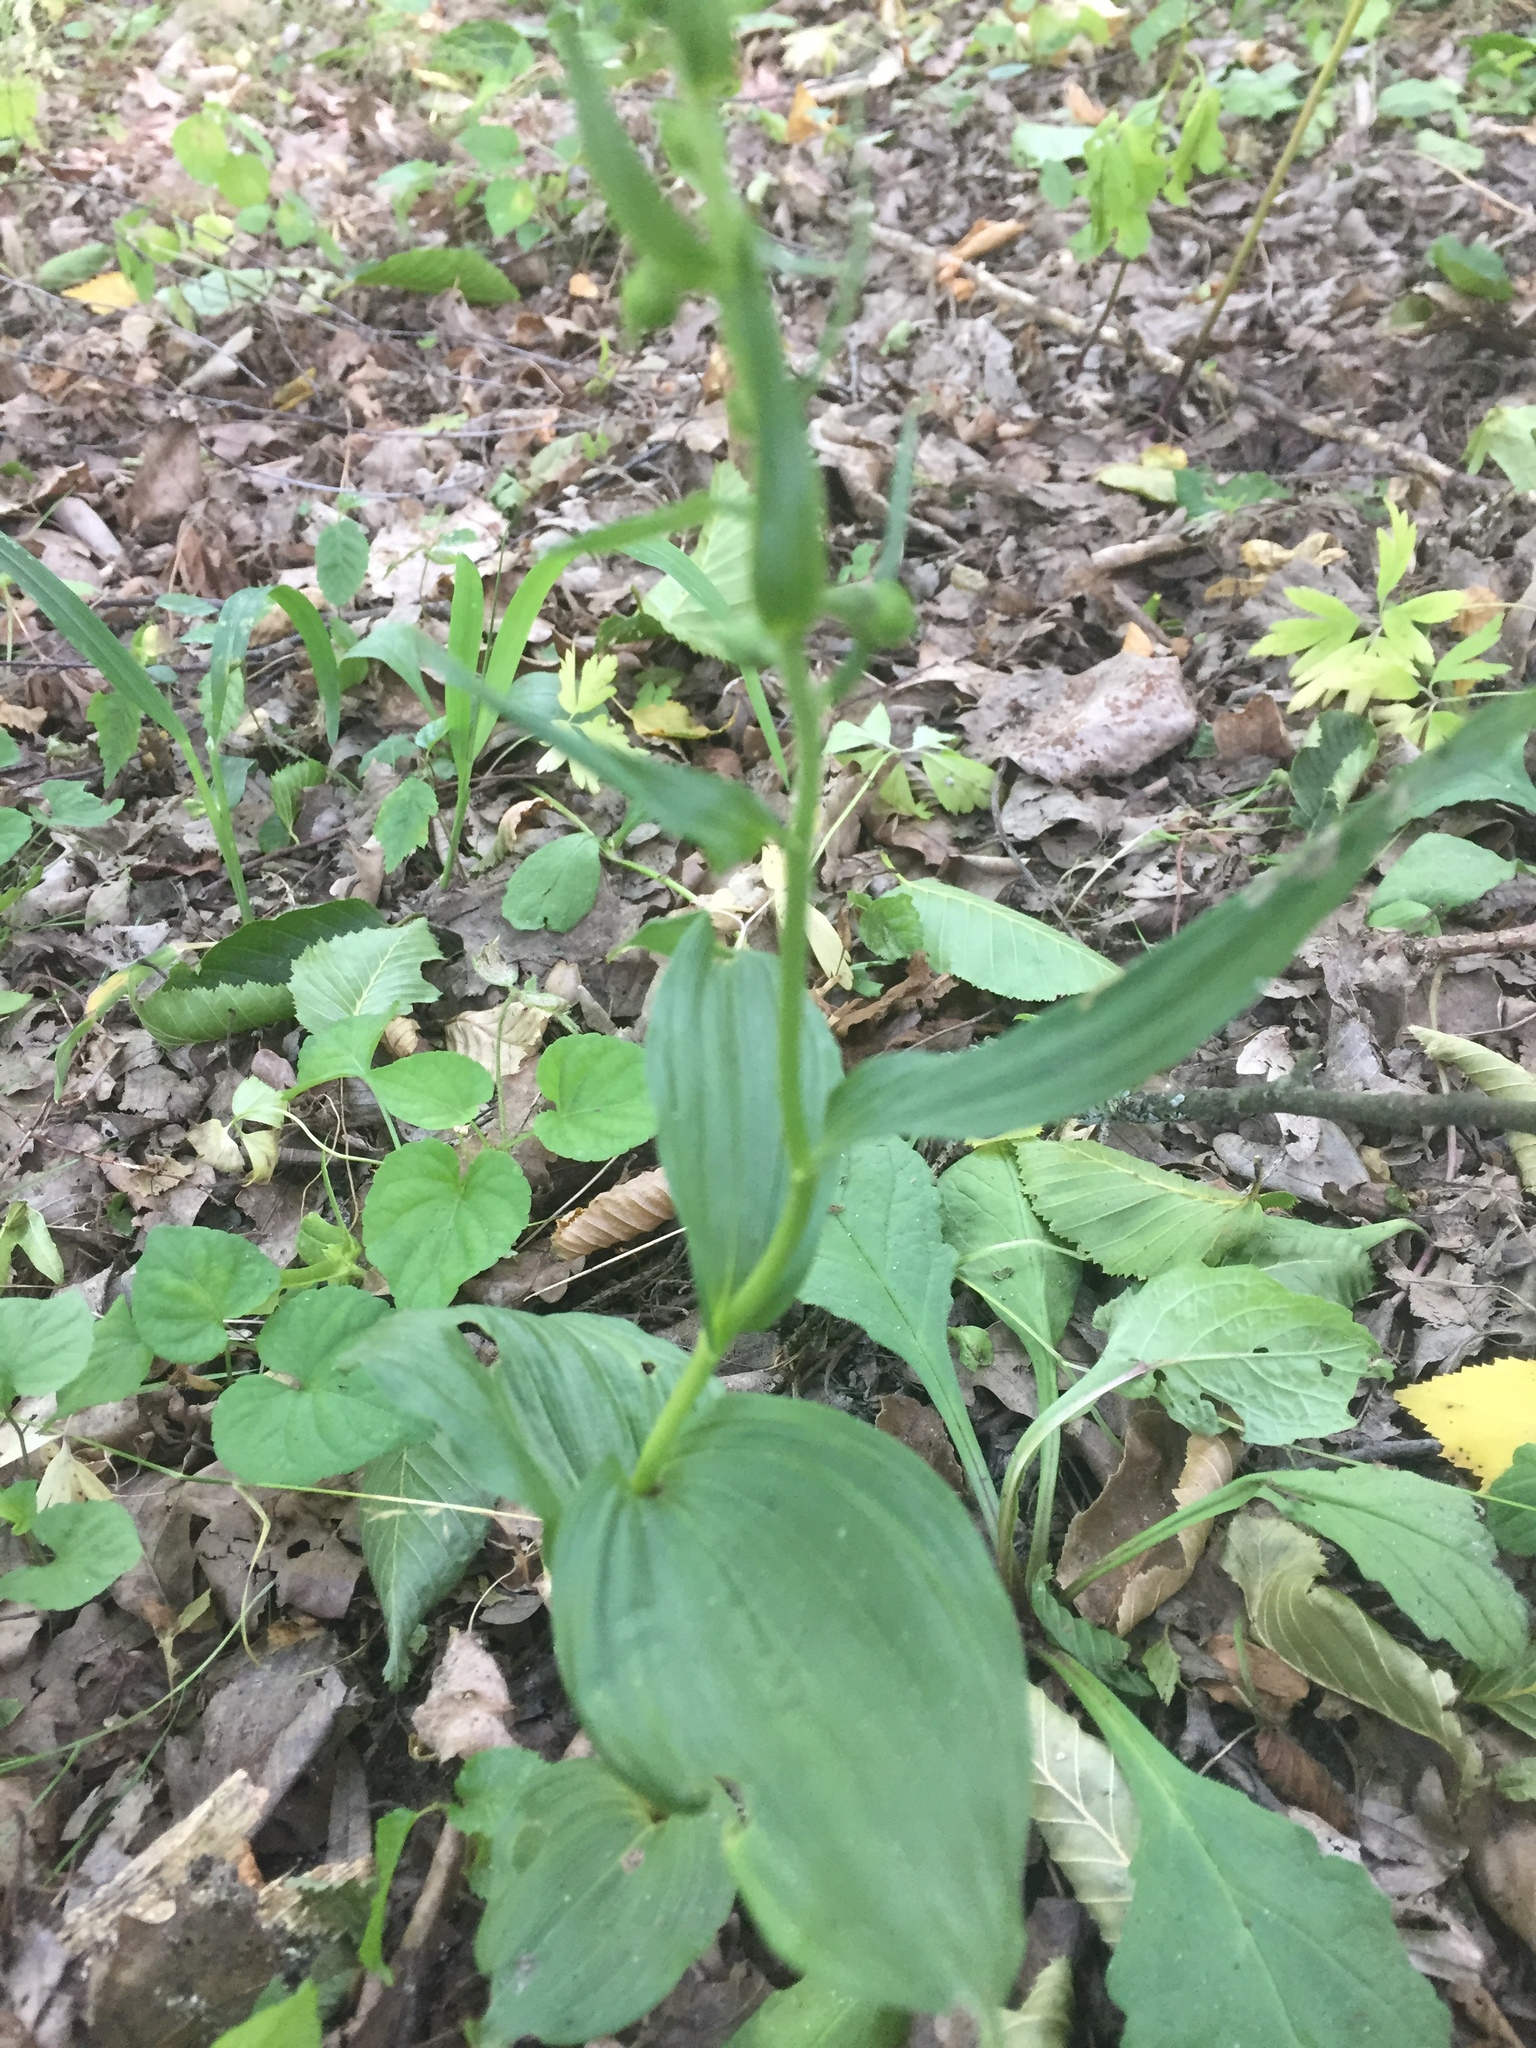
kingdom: Plantae
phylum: Tracheophyta
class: Liliopsida
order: Asparagales
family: Orchidaceae
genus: Epipactis
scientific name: Epipactis helleborine
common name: Broad-leaved helleborine
